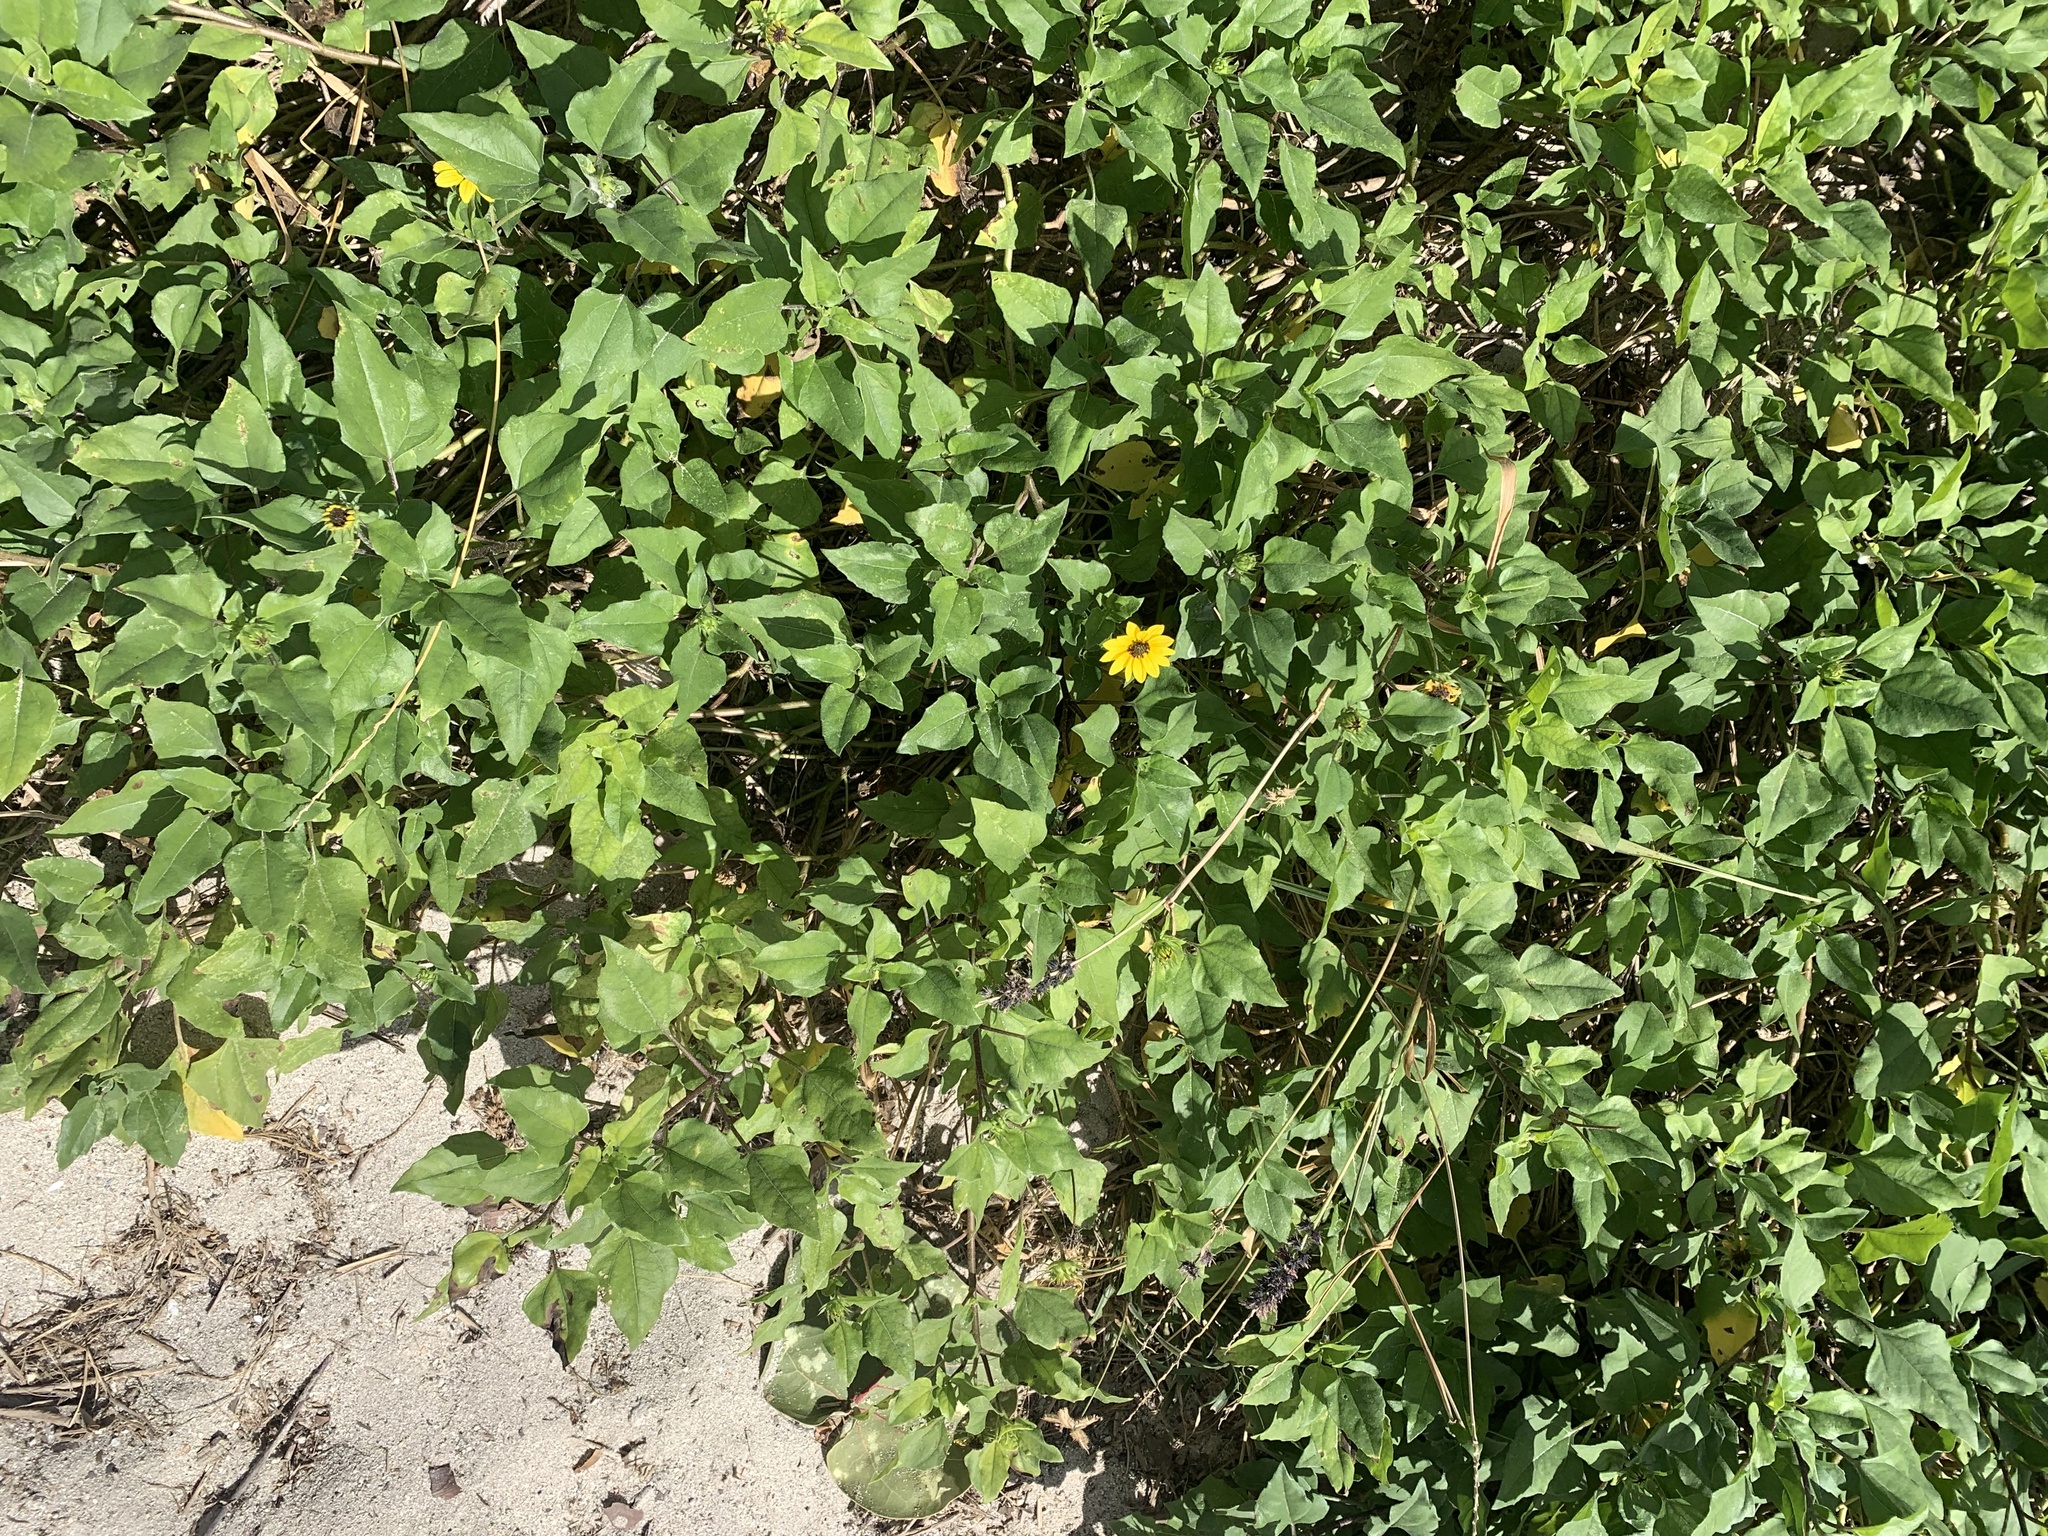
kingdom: Plantae
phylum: Tracheophyta
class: Magnoliopsida
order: Asterales
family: Asteraceae
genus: Helianthus
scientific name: Helianthus debilis
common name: Weak sunflower
